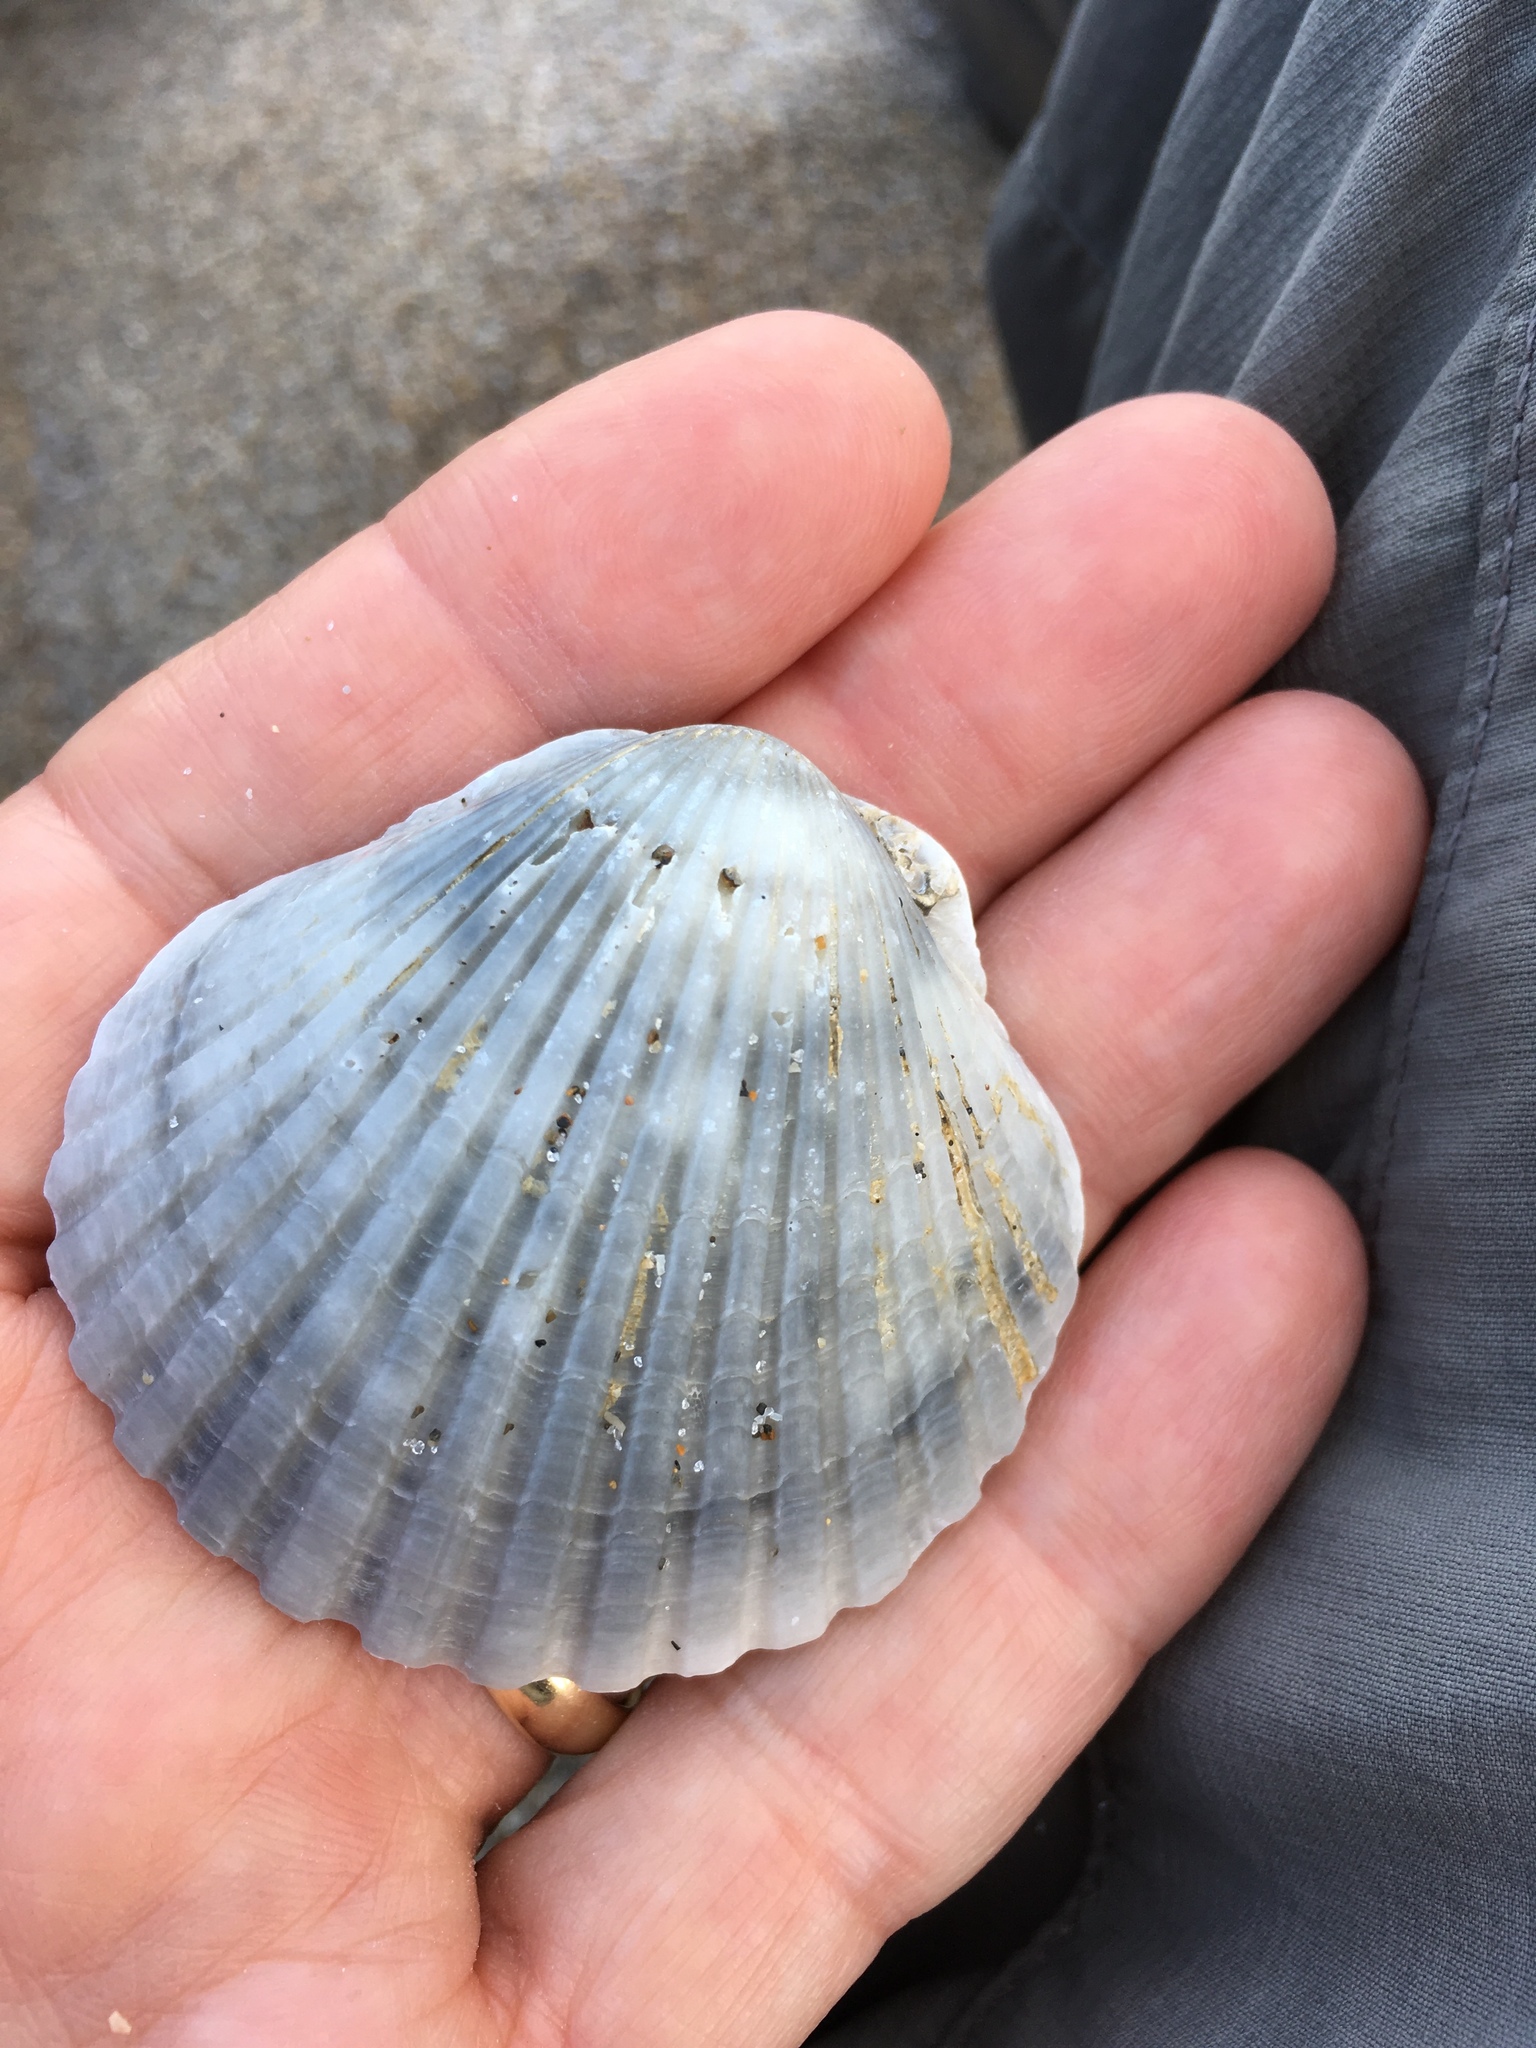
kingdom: Animalia
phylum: Mollusca
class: Bivalvia
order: Pectinida
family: Pectinidae
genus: Argopecten
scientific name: Argopecten gibbus
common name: Atlantic calico scallop
